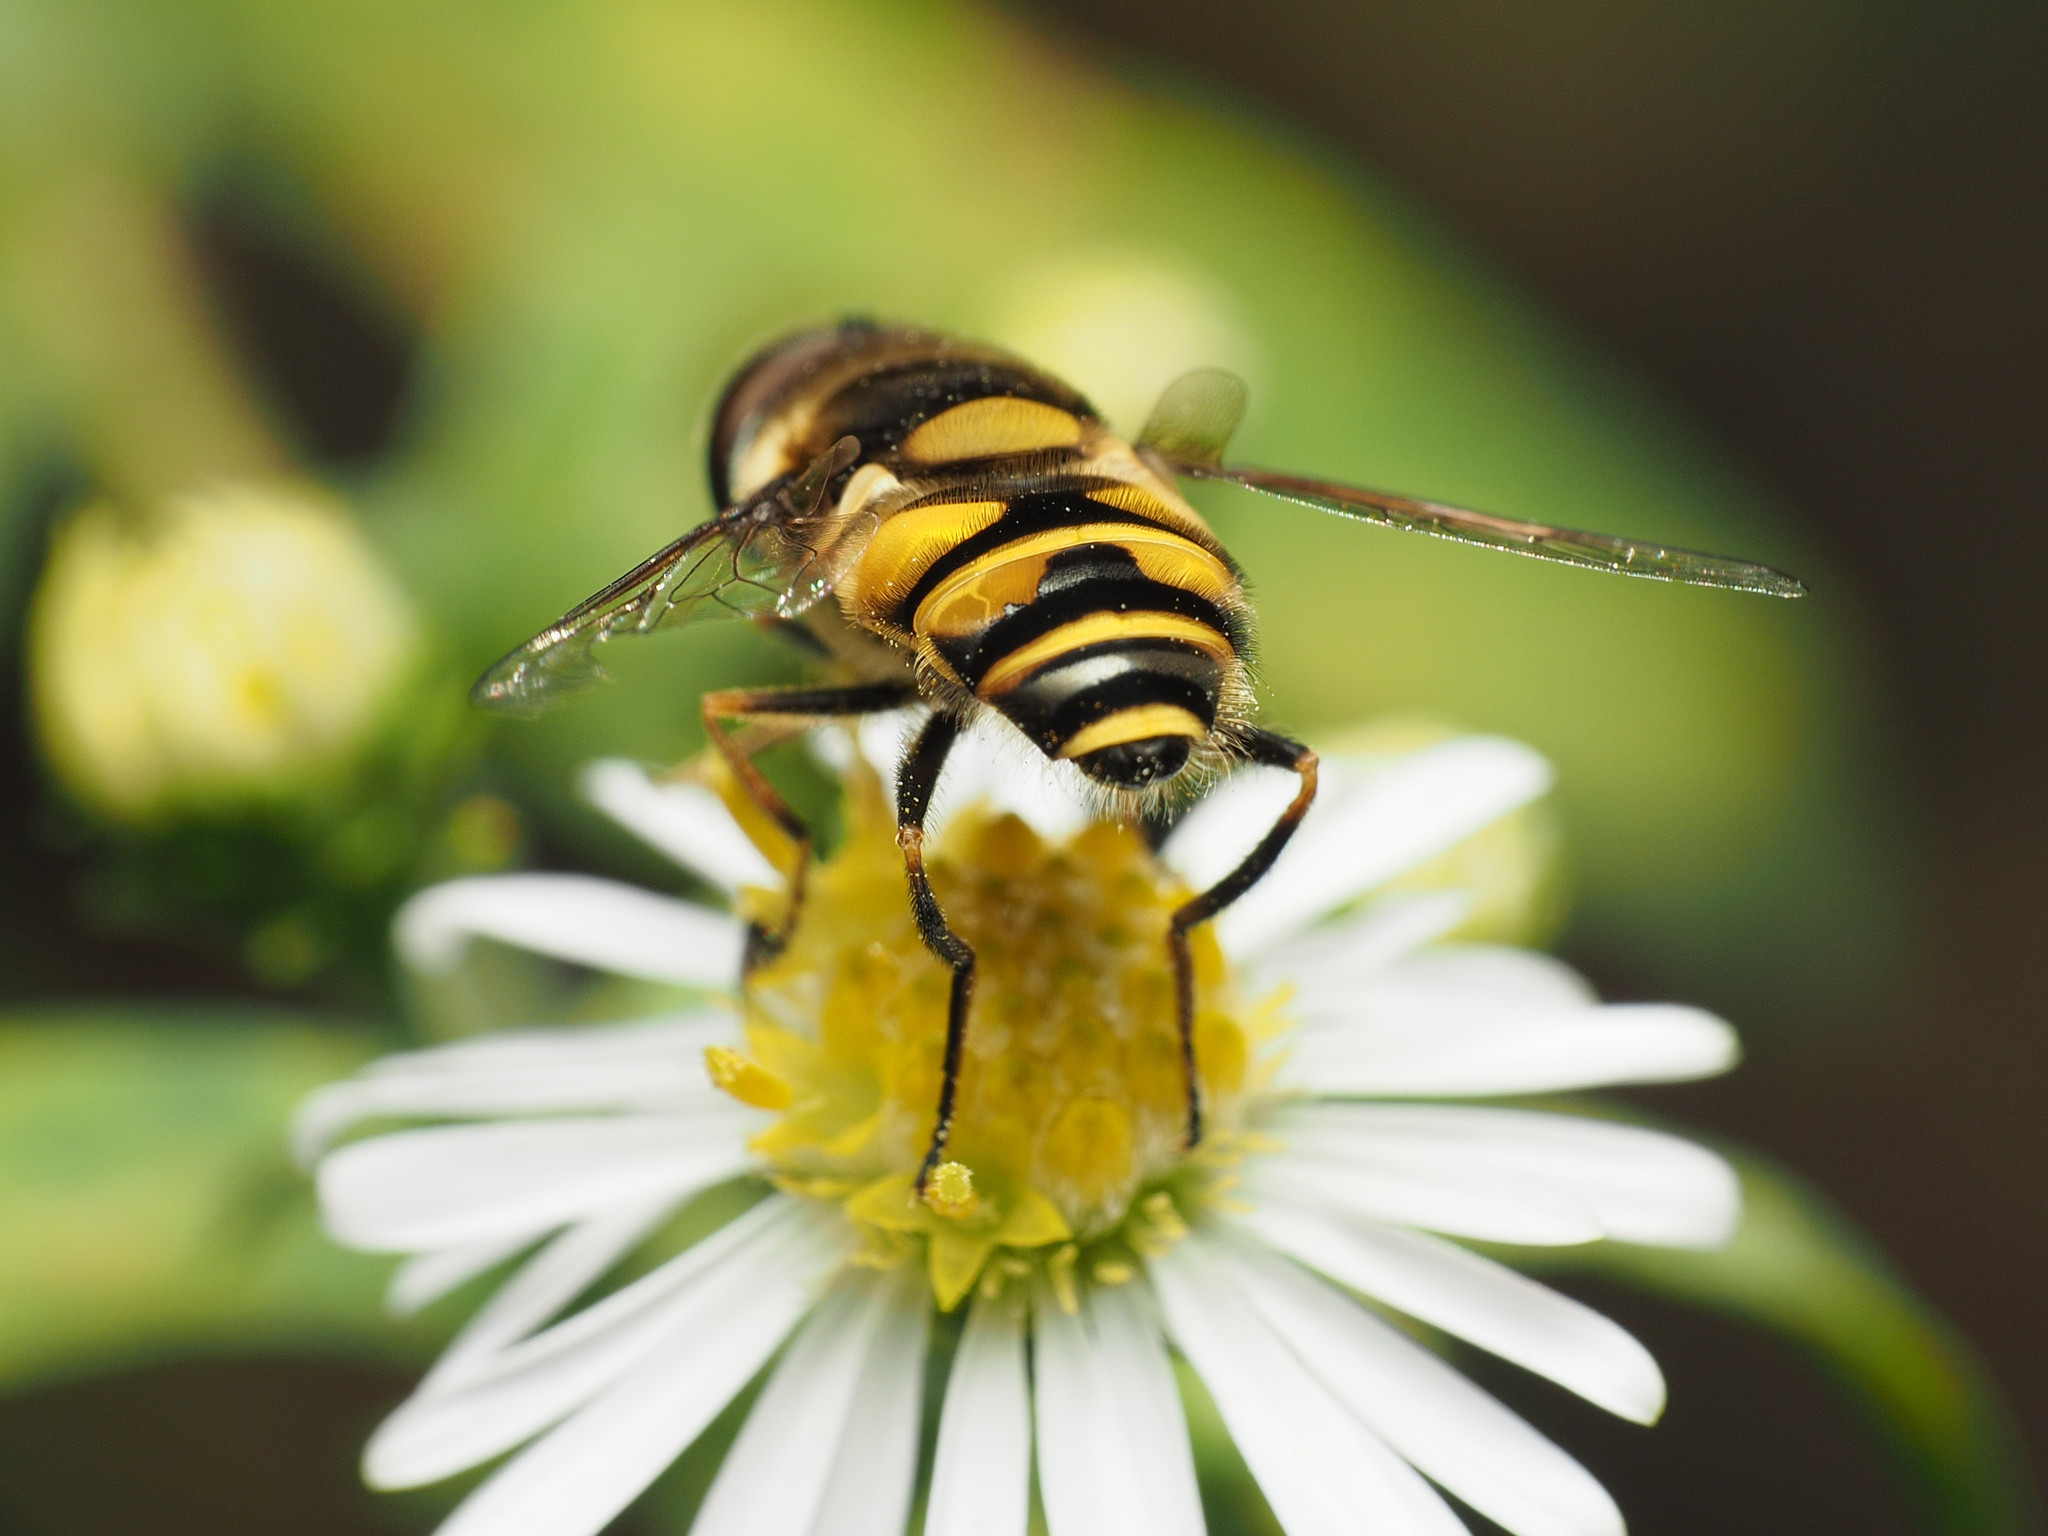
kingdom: Animalia
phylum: Arthropoda
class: Insecta
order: Diptera
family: Syrphidae
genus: Eristalis
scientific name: Eristalis transversa
